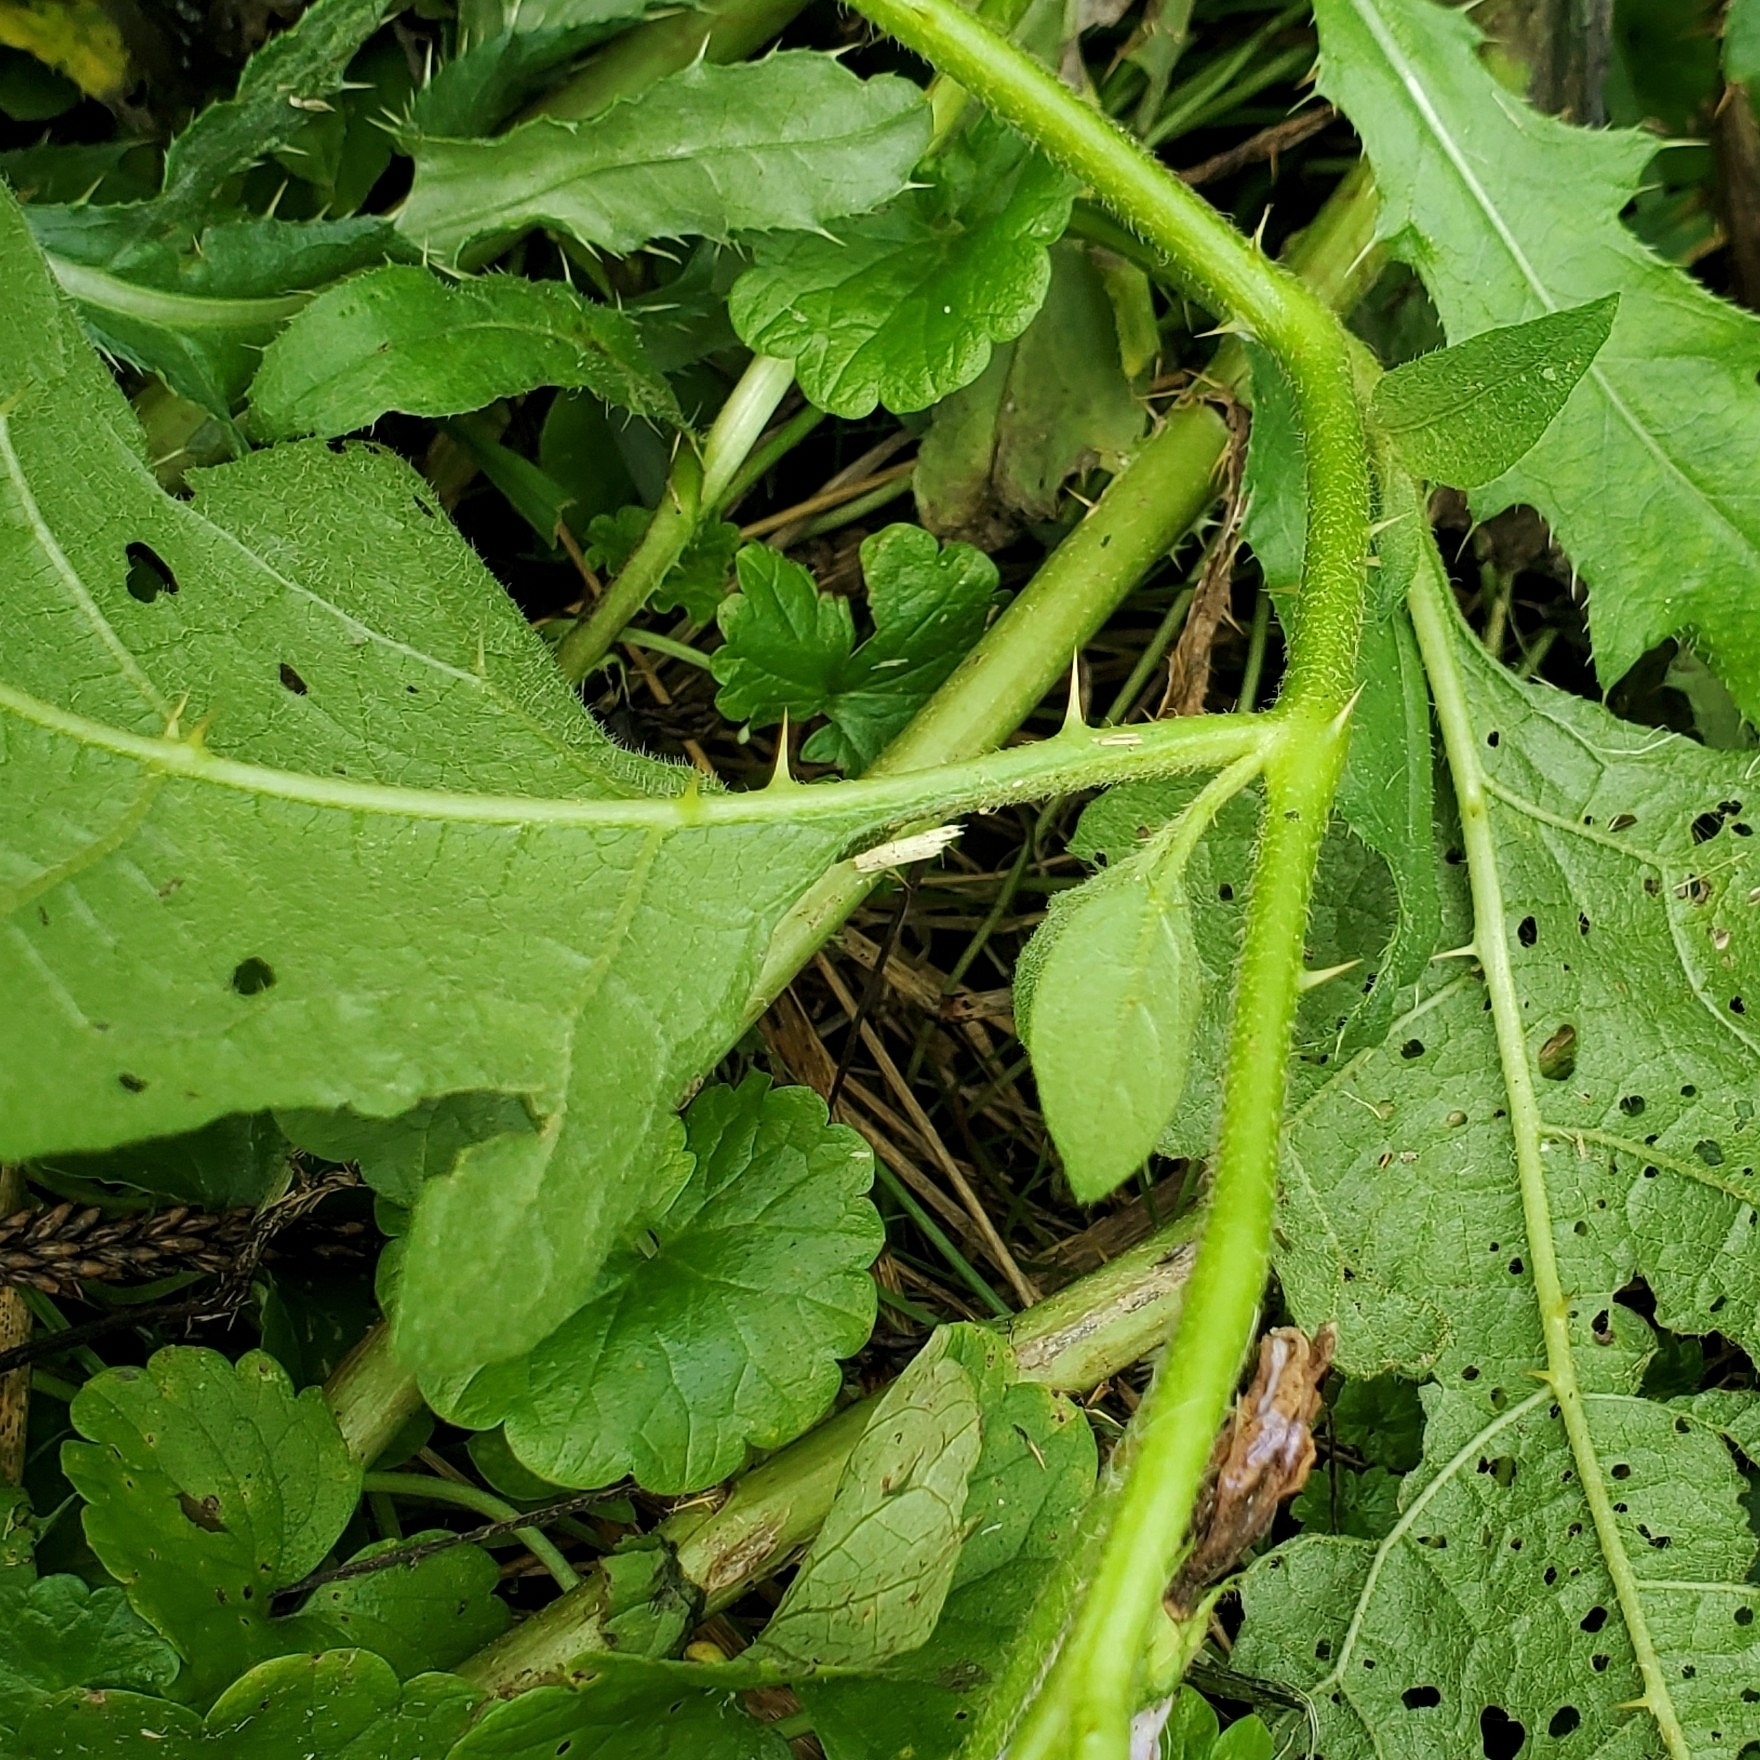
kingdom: Plantae
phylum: Tracheophyta
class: Magnoliopsida
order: Solanales
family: Solanaceae
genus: Solanum
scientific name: Solanum carolinense
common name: Horse-nettle
